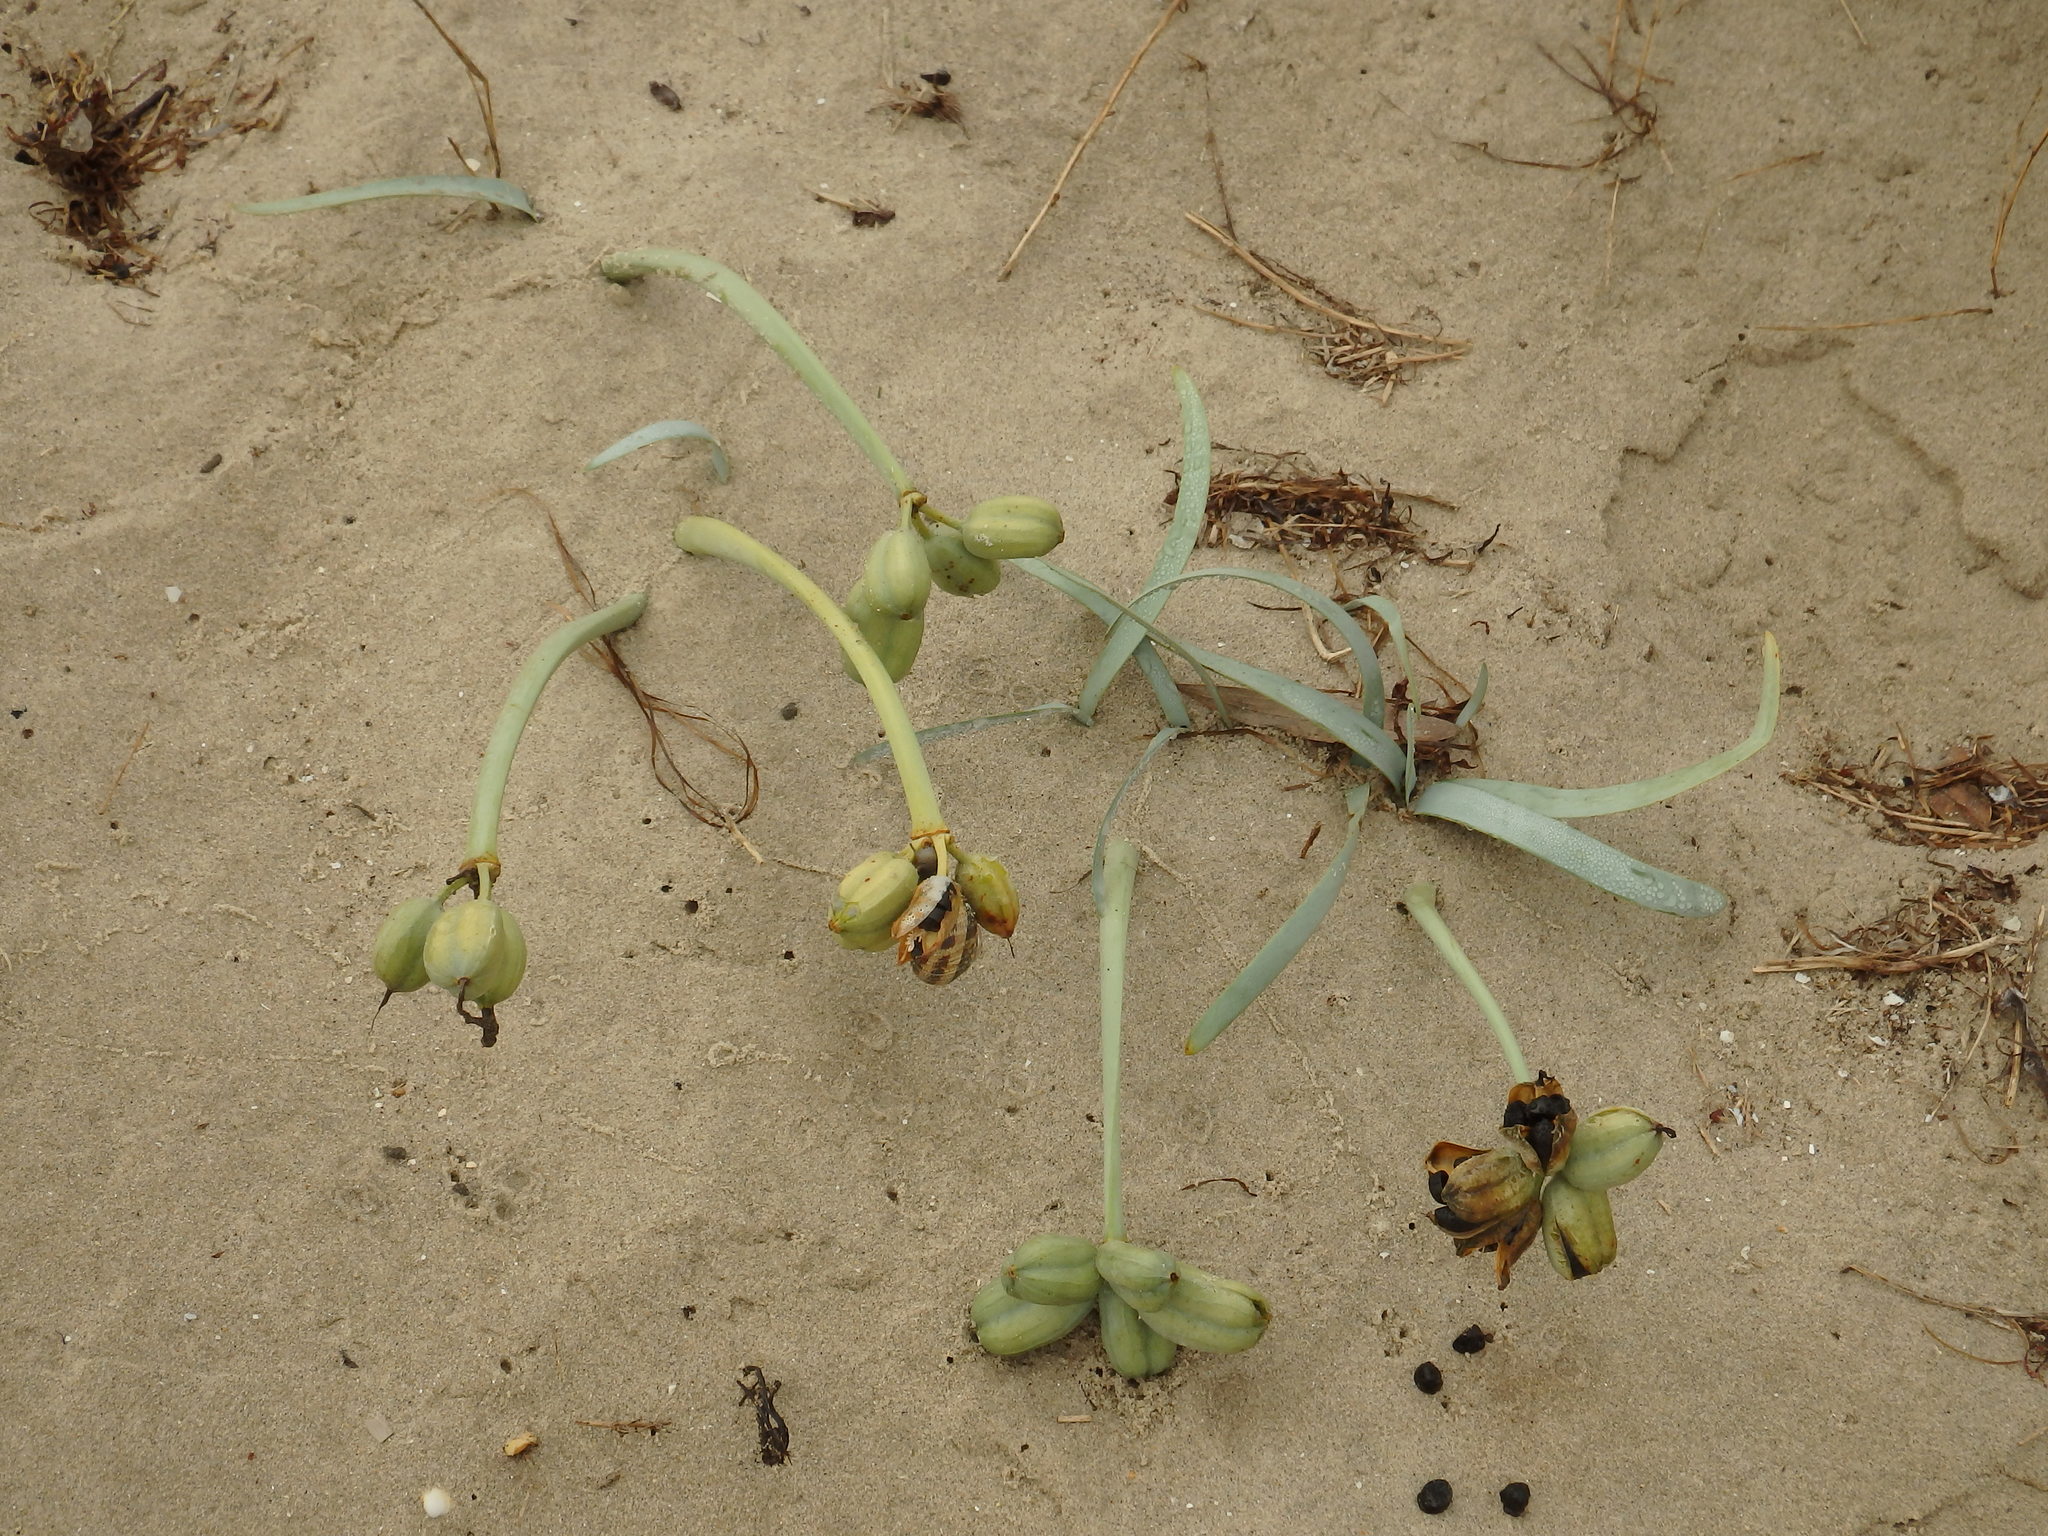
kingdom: Plantae
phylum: Tracheophyta
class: Liliopsida
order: Asparagales
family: Amaryllidaceae
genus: Pancratium
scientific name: Pancratium maritimum
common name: Sea-daffodil
